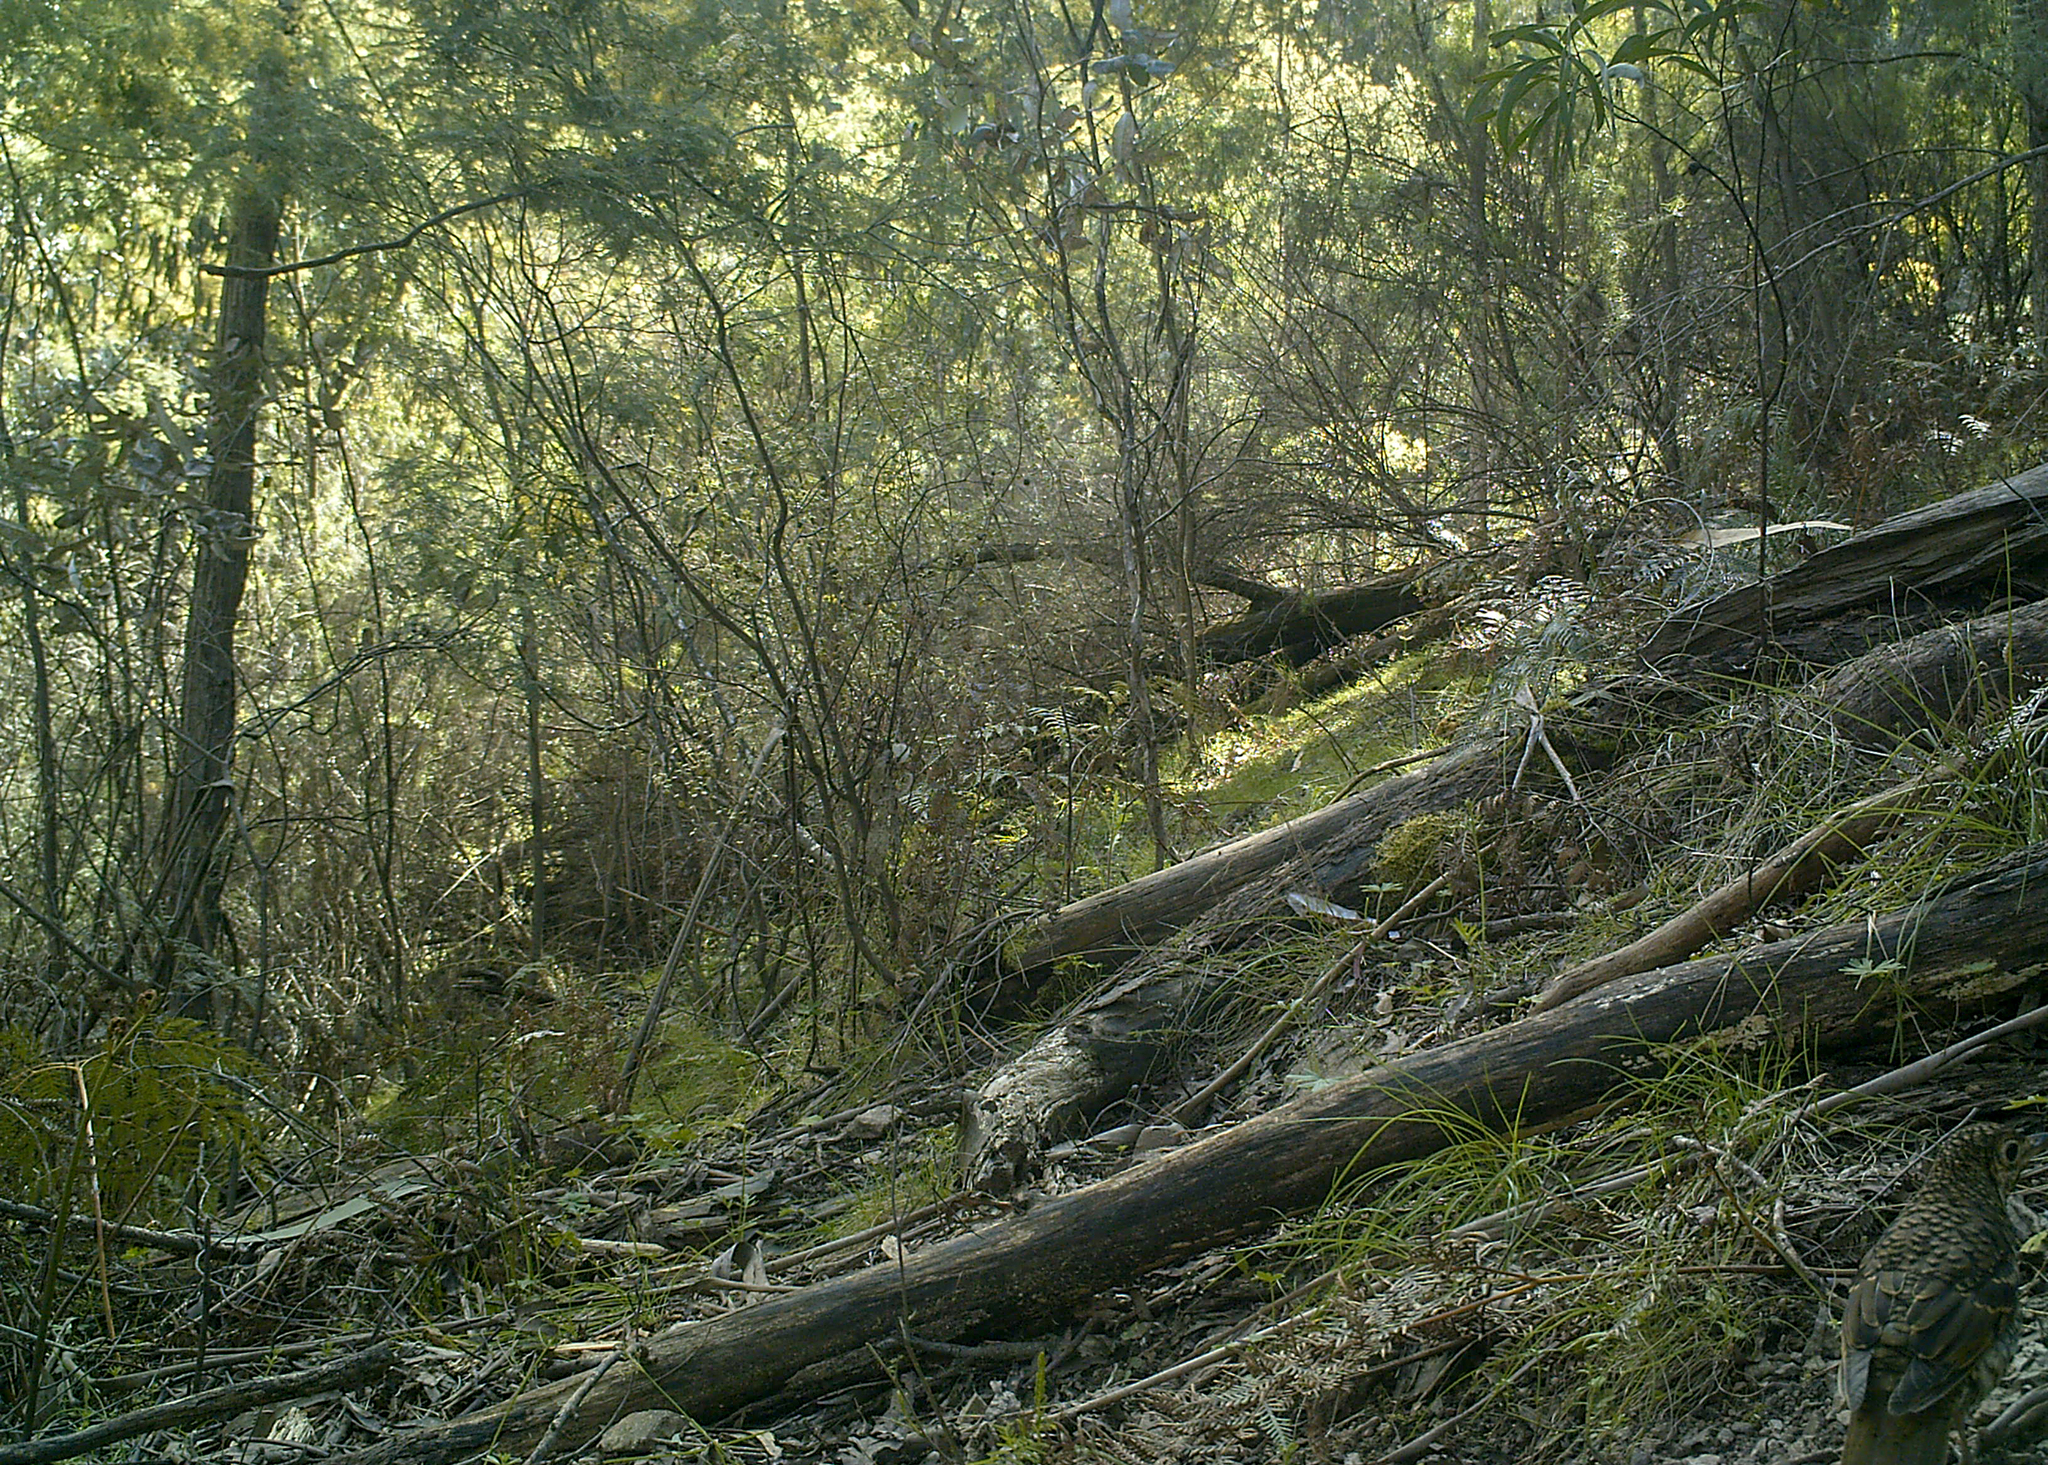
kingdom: Animalia
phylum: Chordata
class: Aves
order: Passeriformes
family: Turdidae
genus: Zoothera
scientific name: Zoothera lunulata
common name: Bassian thrush
